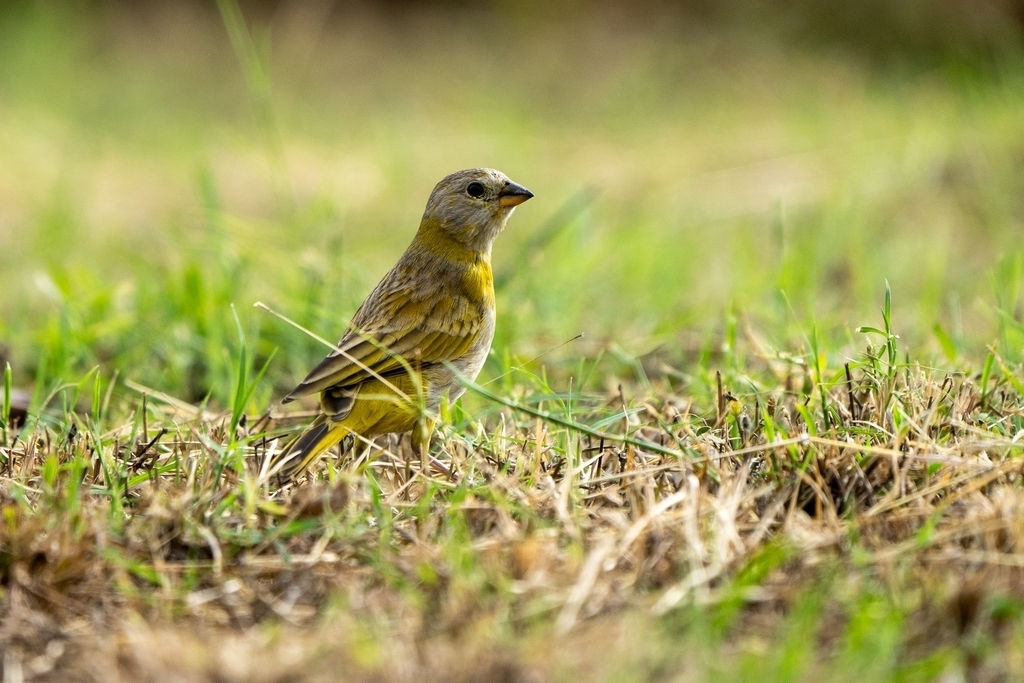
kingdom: Animalia
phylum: Chordata
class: Aves
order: Passeriformes
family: Thraupidae
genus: Sicalis
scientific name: Sicalis flaveola
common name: Saffron finch
